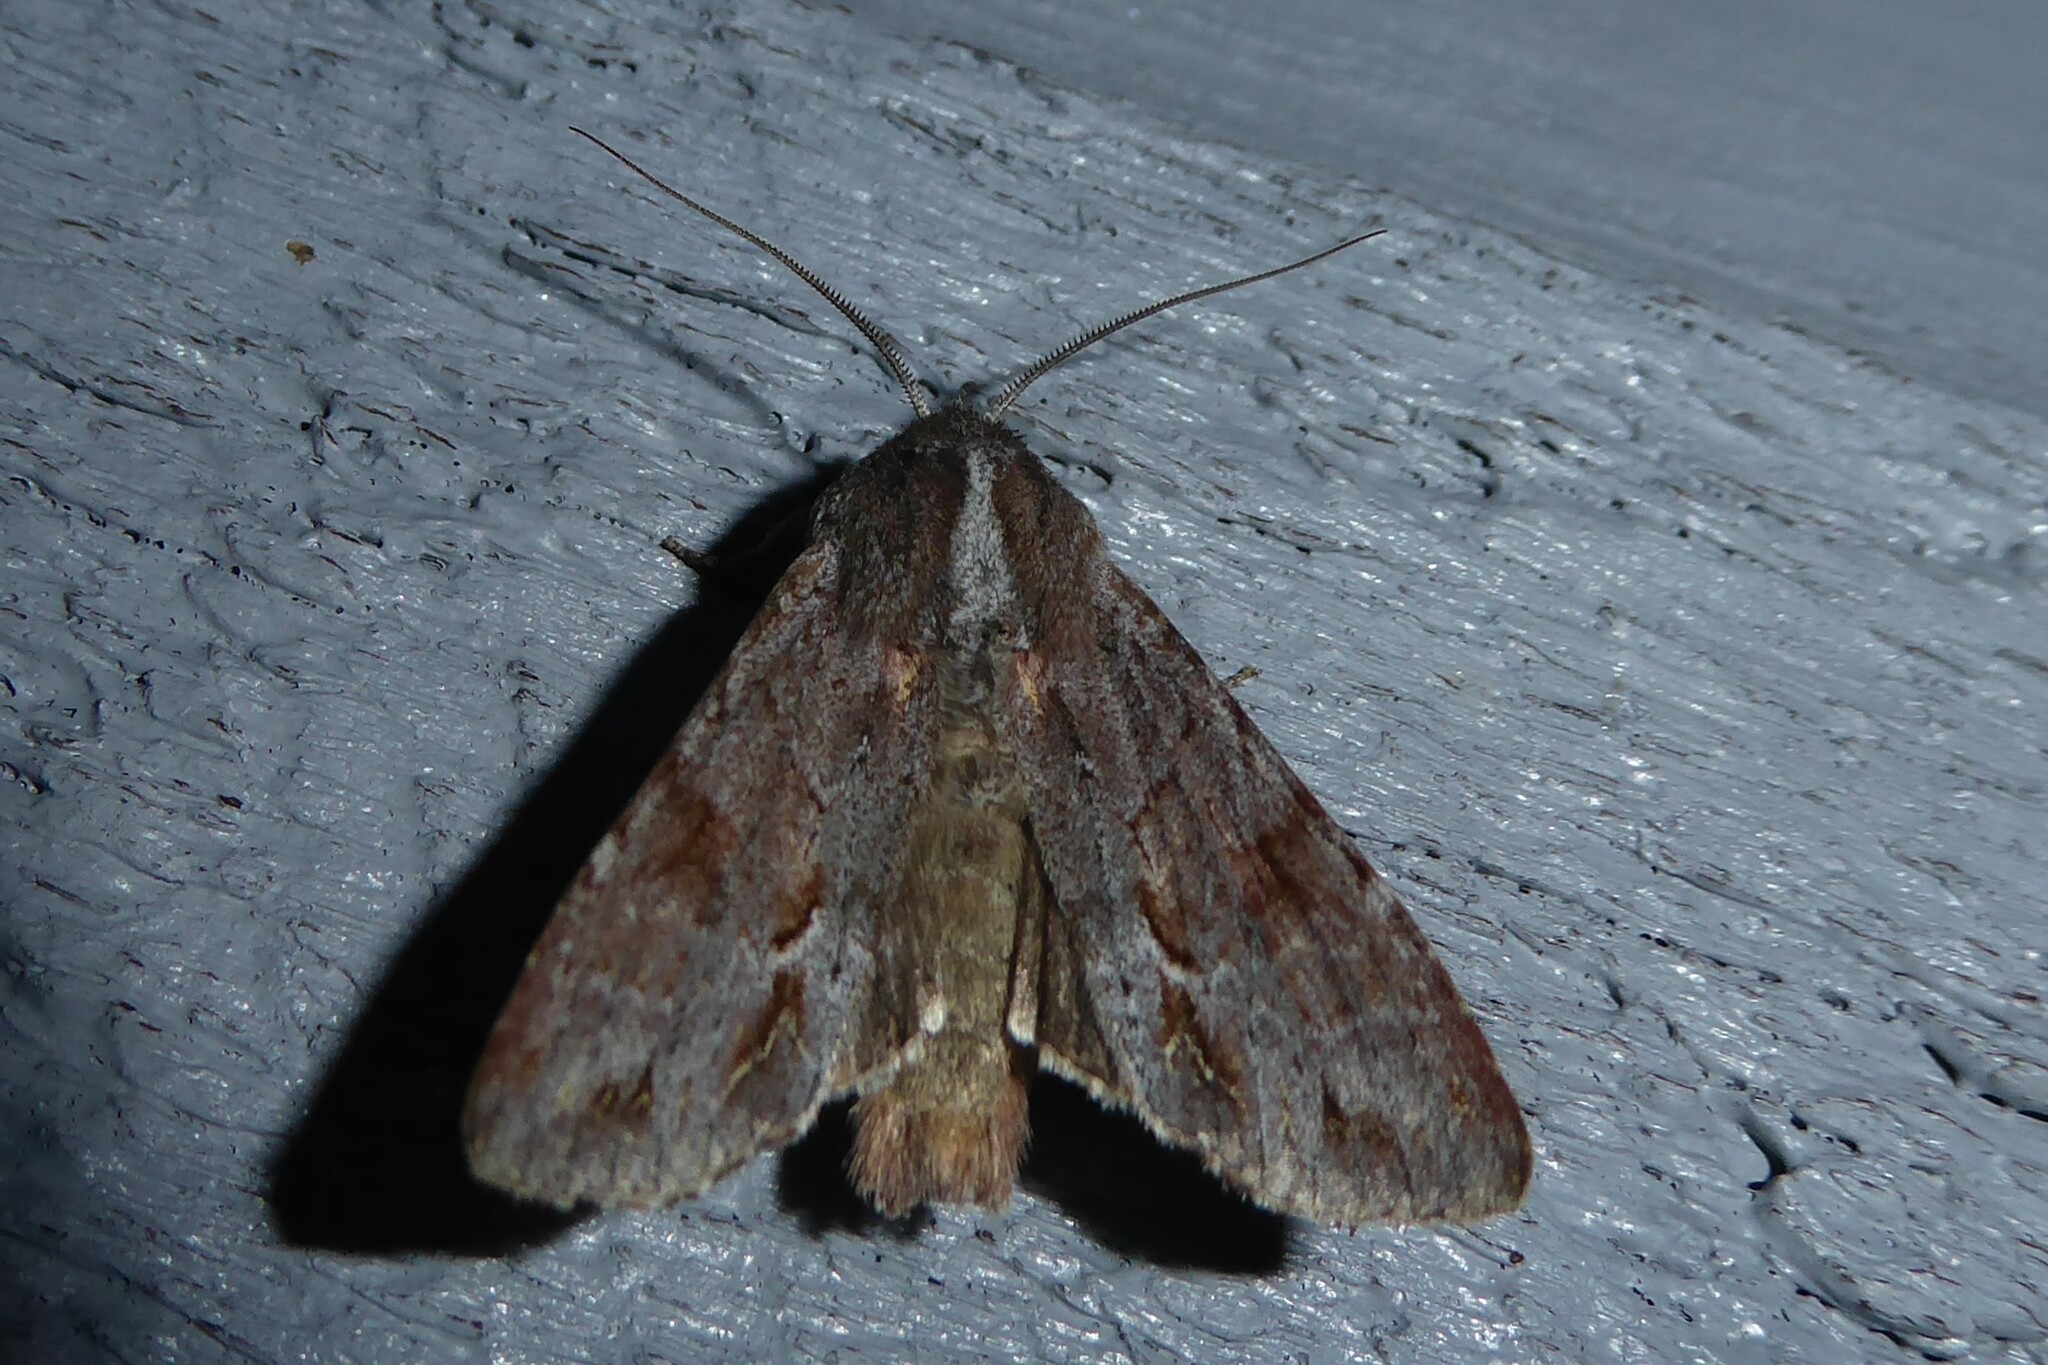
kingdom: Animalia
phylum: Arthropoda
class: Insecta
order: Lepidoptera
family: Noctuidae
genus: Ichneutica
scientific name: Ichneutica
